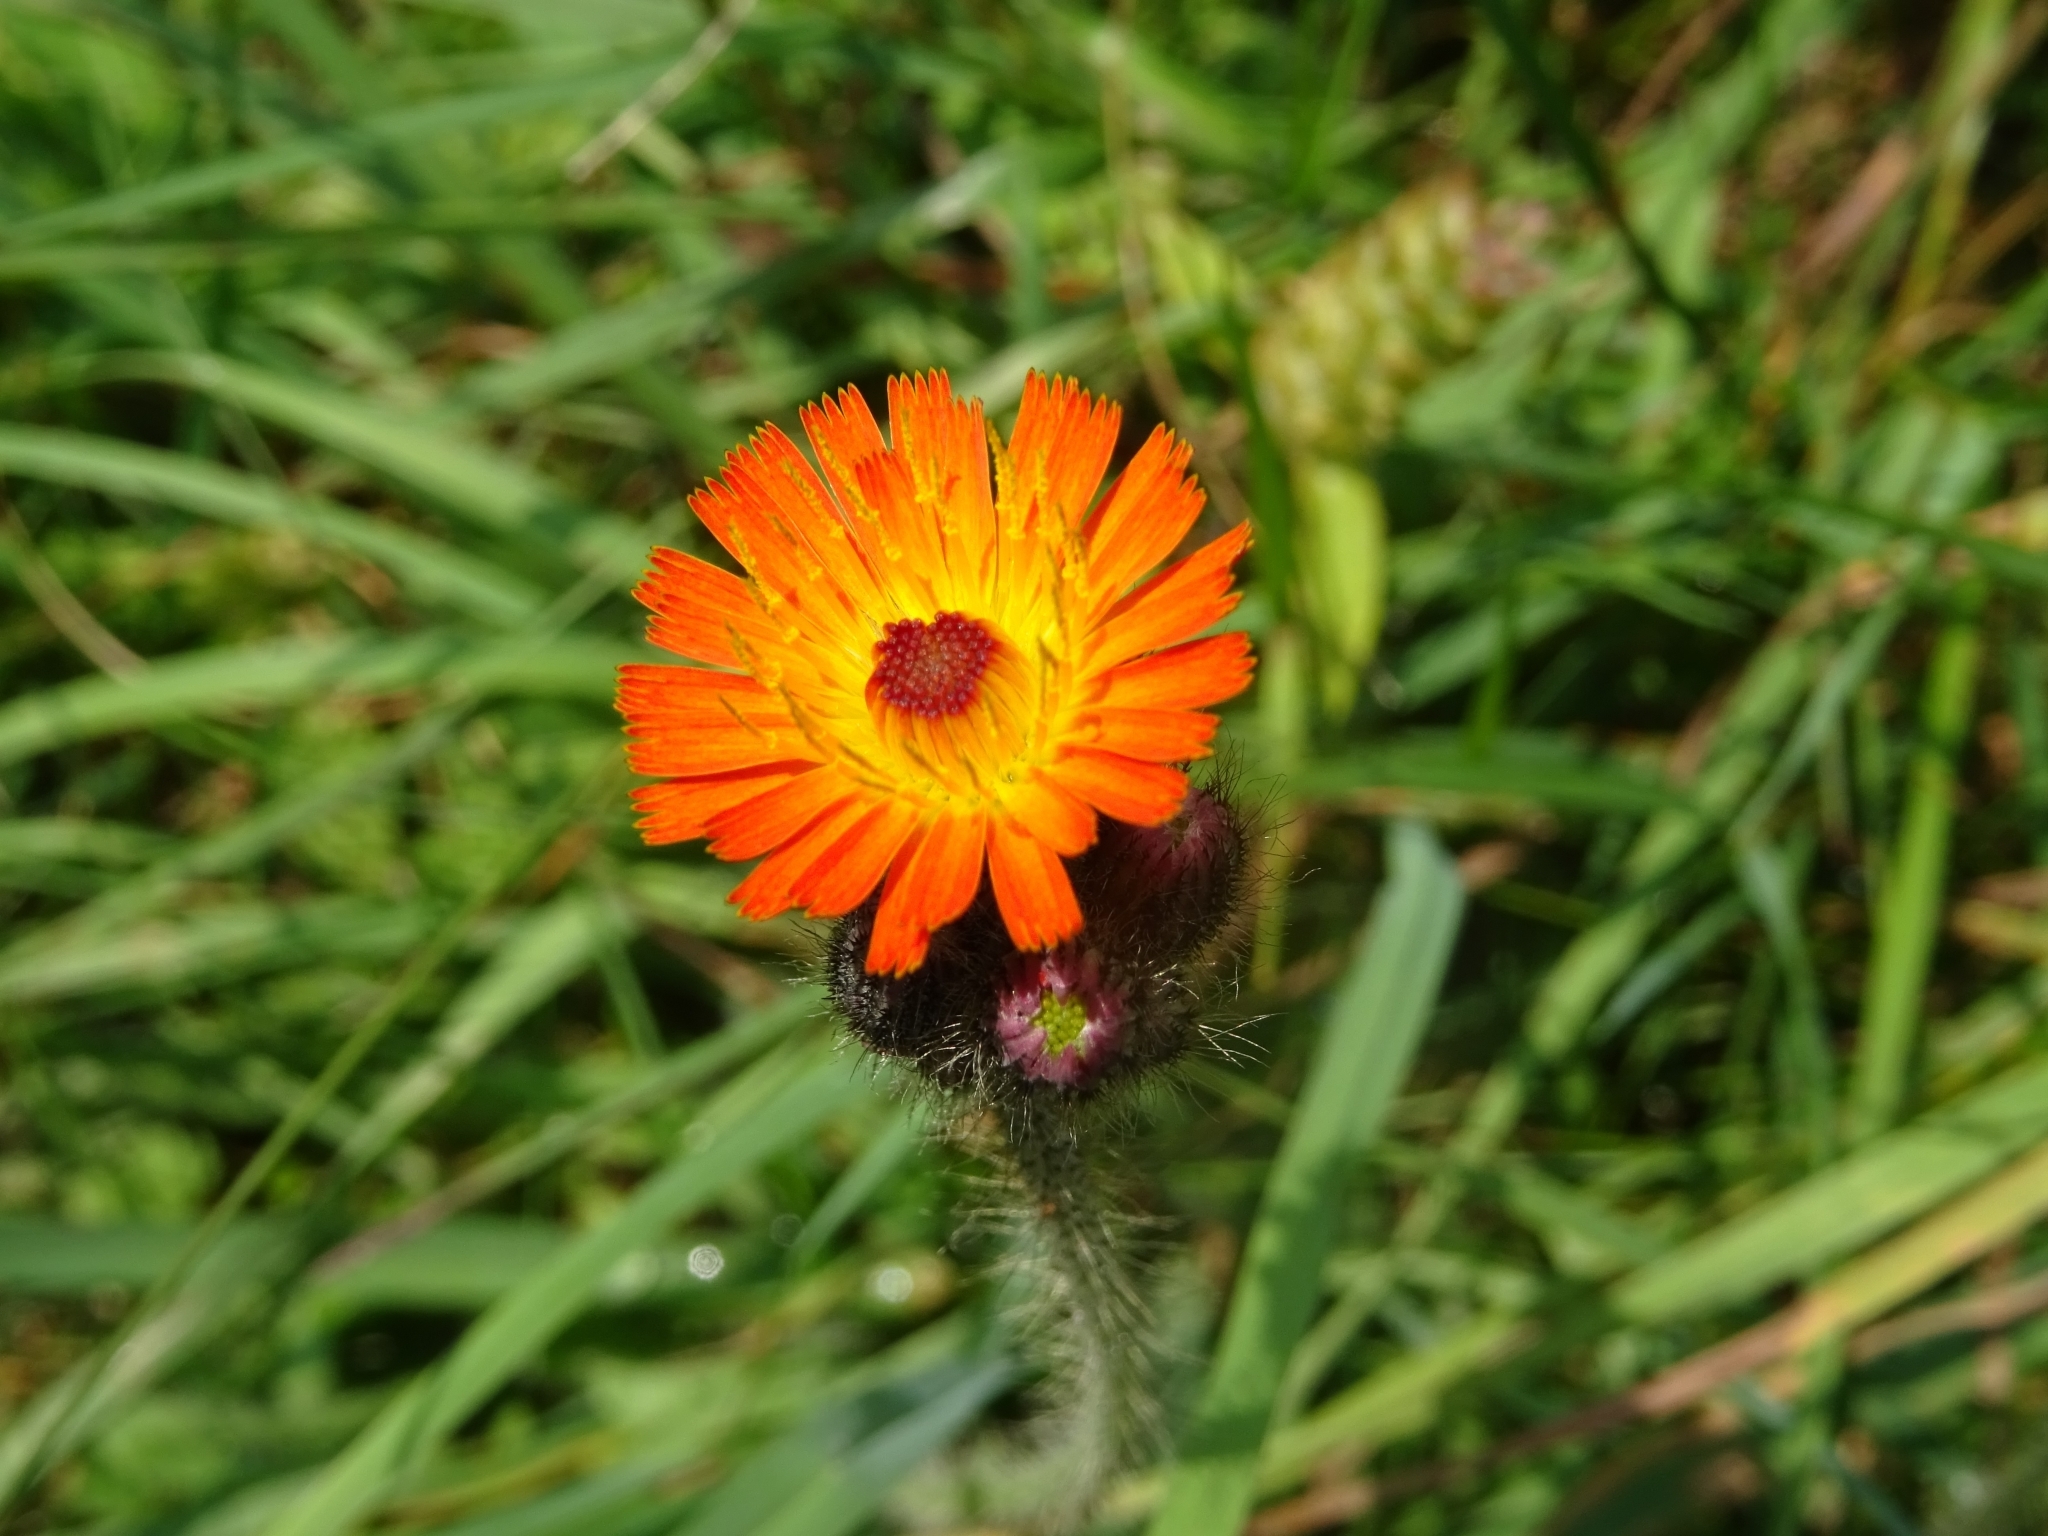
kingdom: Plantae
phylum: Tracheophyta
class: Magnoliopsida
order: Asterales
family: Asteraceae
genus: Pilosella
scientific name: Pilosella aurantiaca
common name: Fox-and-cubs
